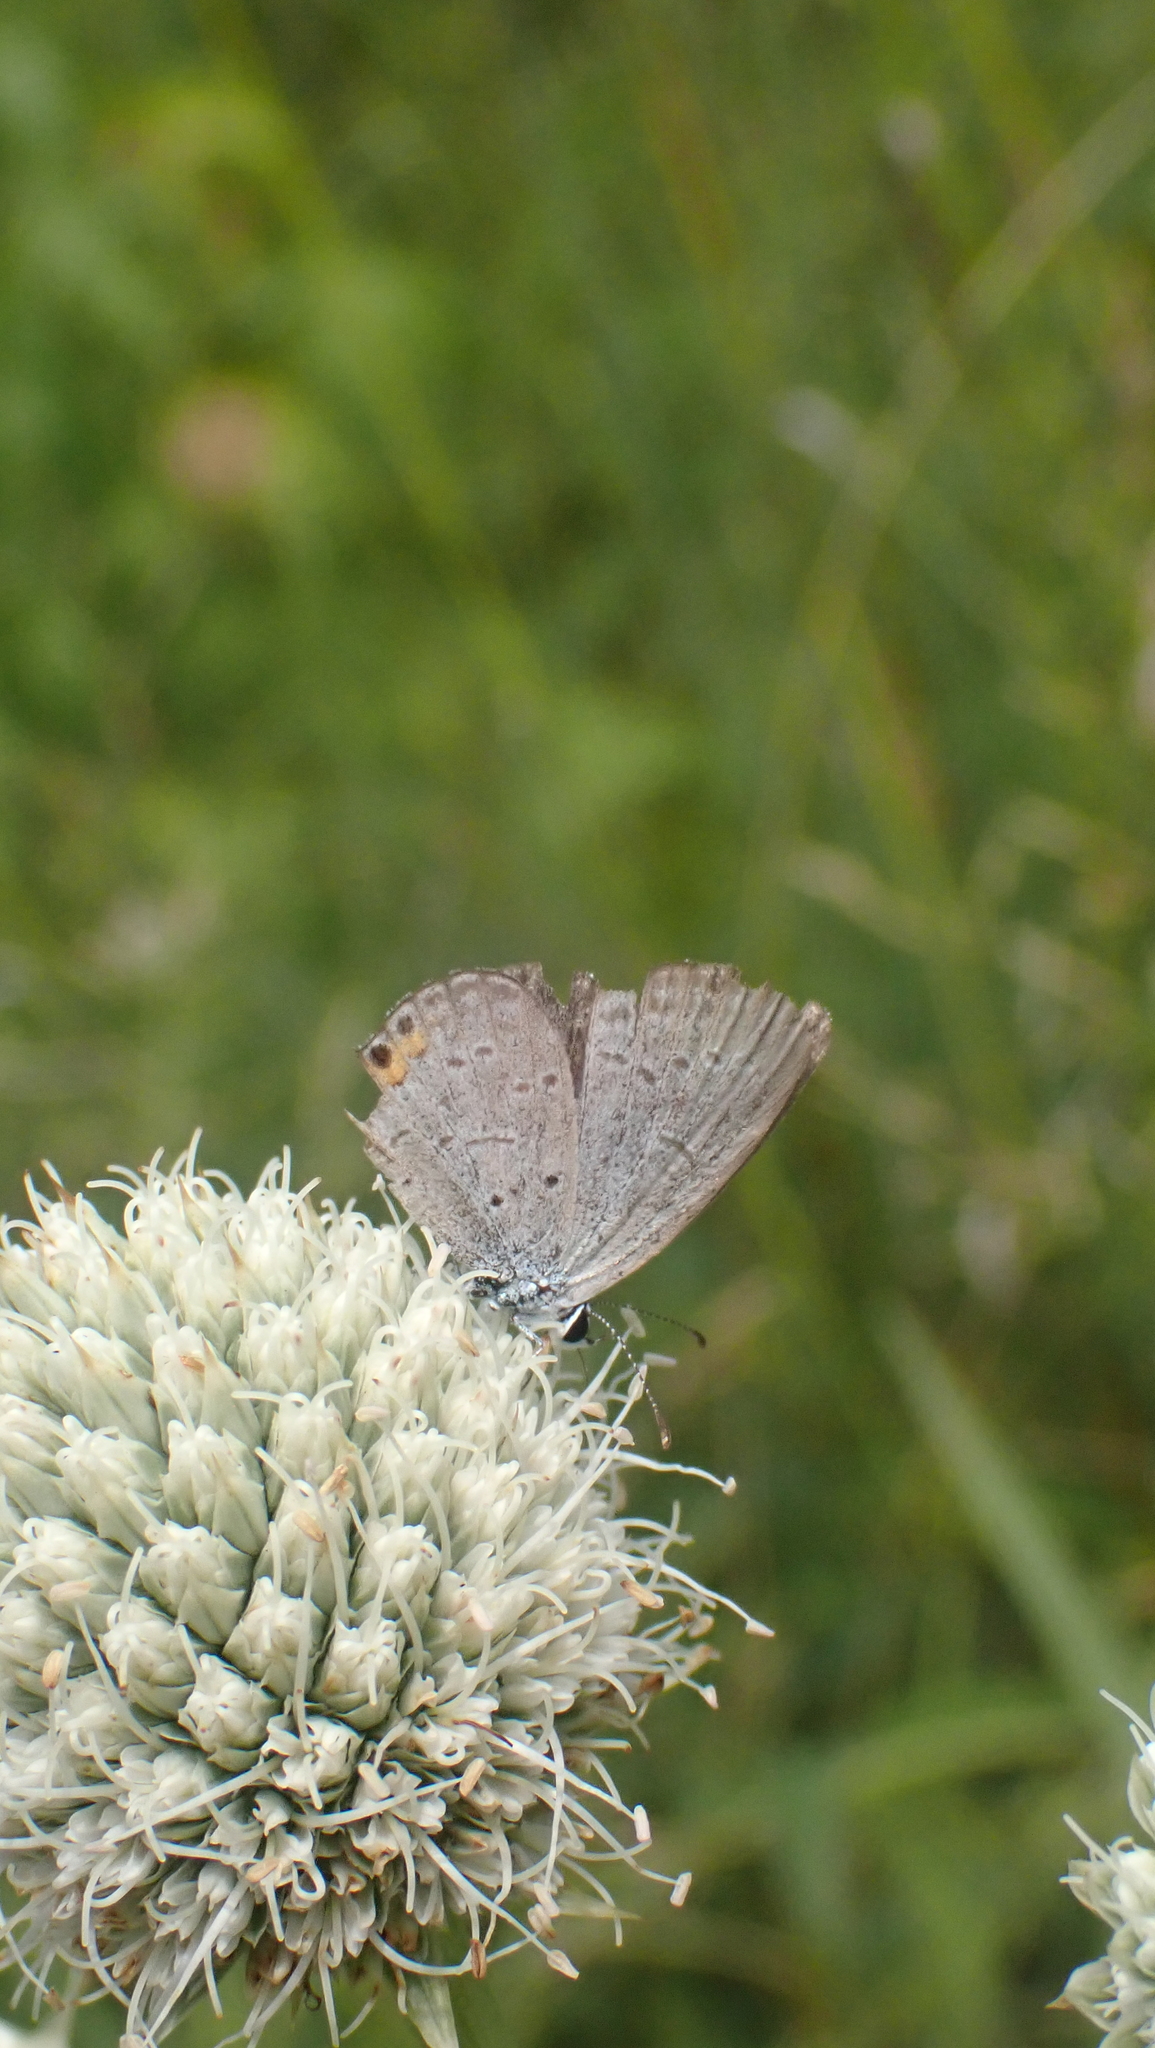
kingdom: Animalia
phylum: Arthropoda
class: Insecta
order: Lepidoptera
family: Lycaenidae
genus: Elkalyce
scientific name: Elkalyce comyntas
